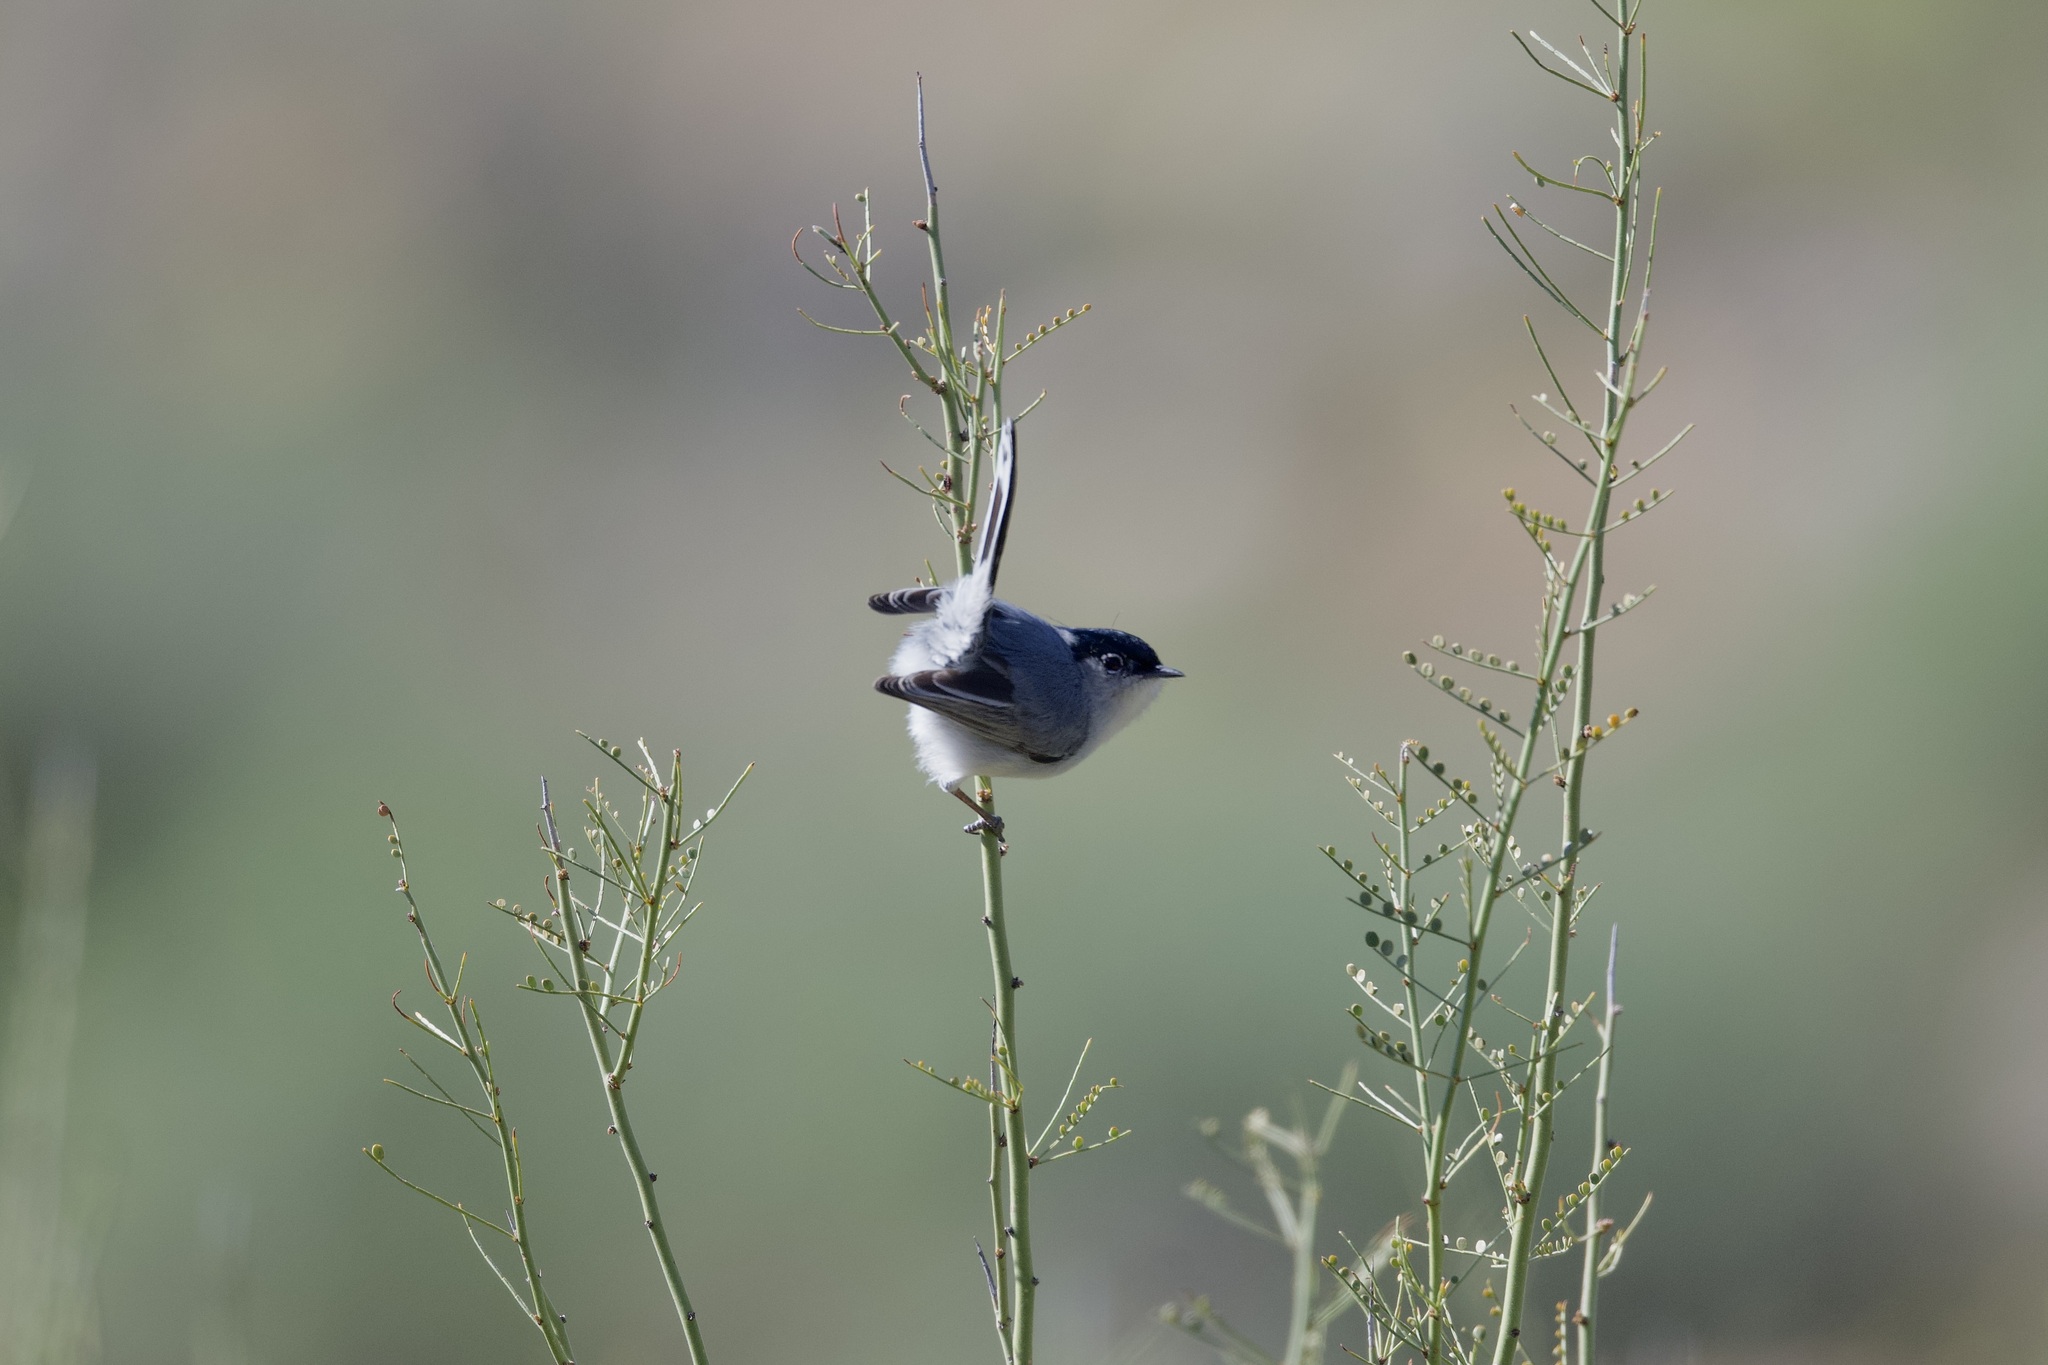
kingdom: Animalia
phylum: Chordata
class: Aves
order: Passeriformes
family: Polioptilidae
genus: Polioptila
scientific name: Polioptila melanura
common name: Black-tailed gnatcatcher
